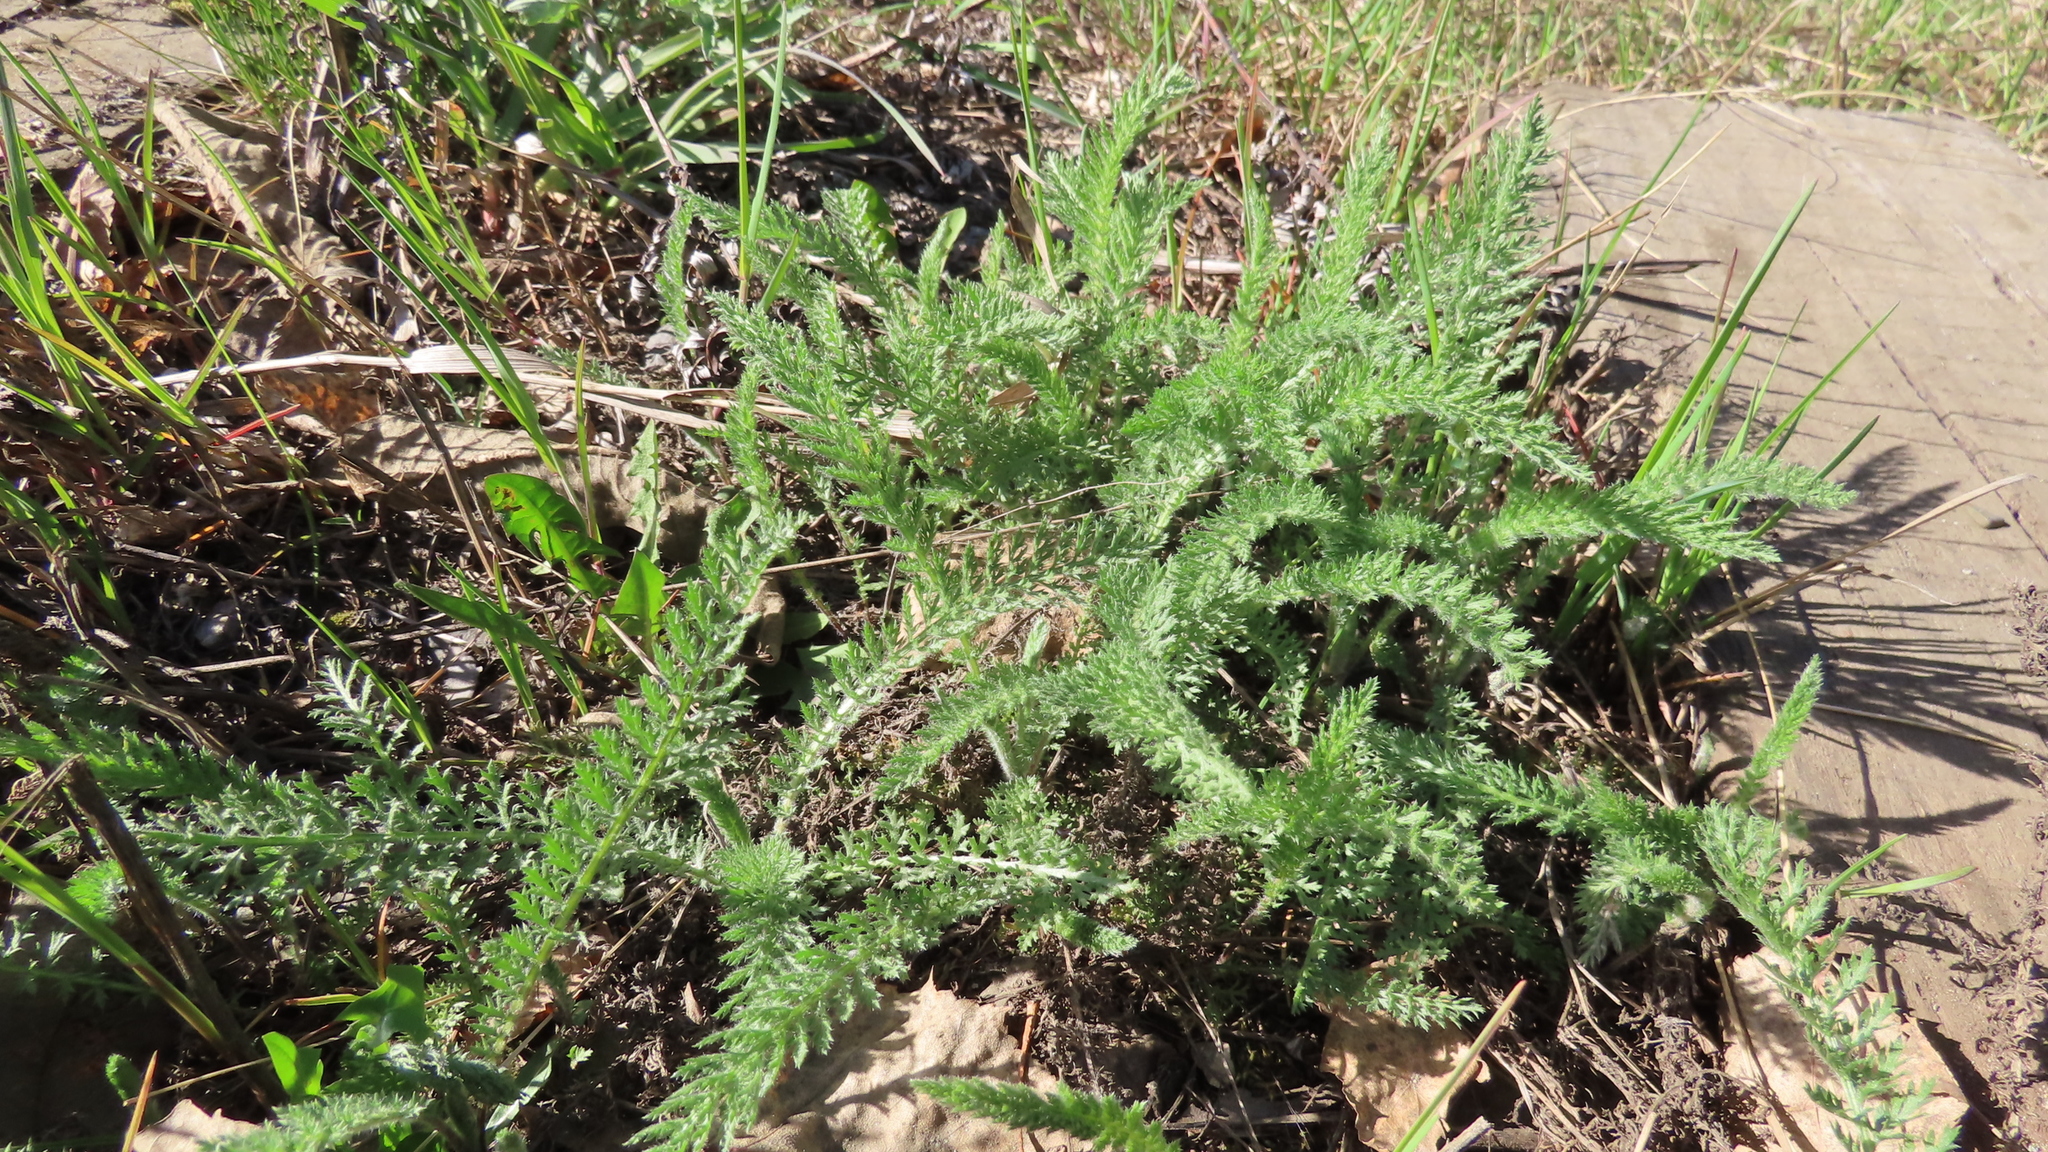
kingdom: Plantae
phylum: Tracheophyta
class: Magnoliopsida
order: Asterales
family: Asteraceae
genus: Achillea
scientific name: Achillea millefolium
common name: Yarrow
